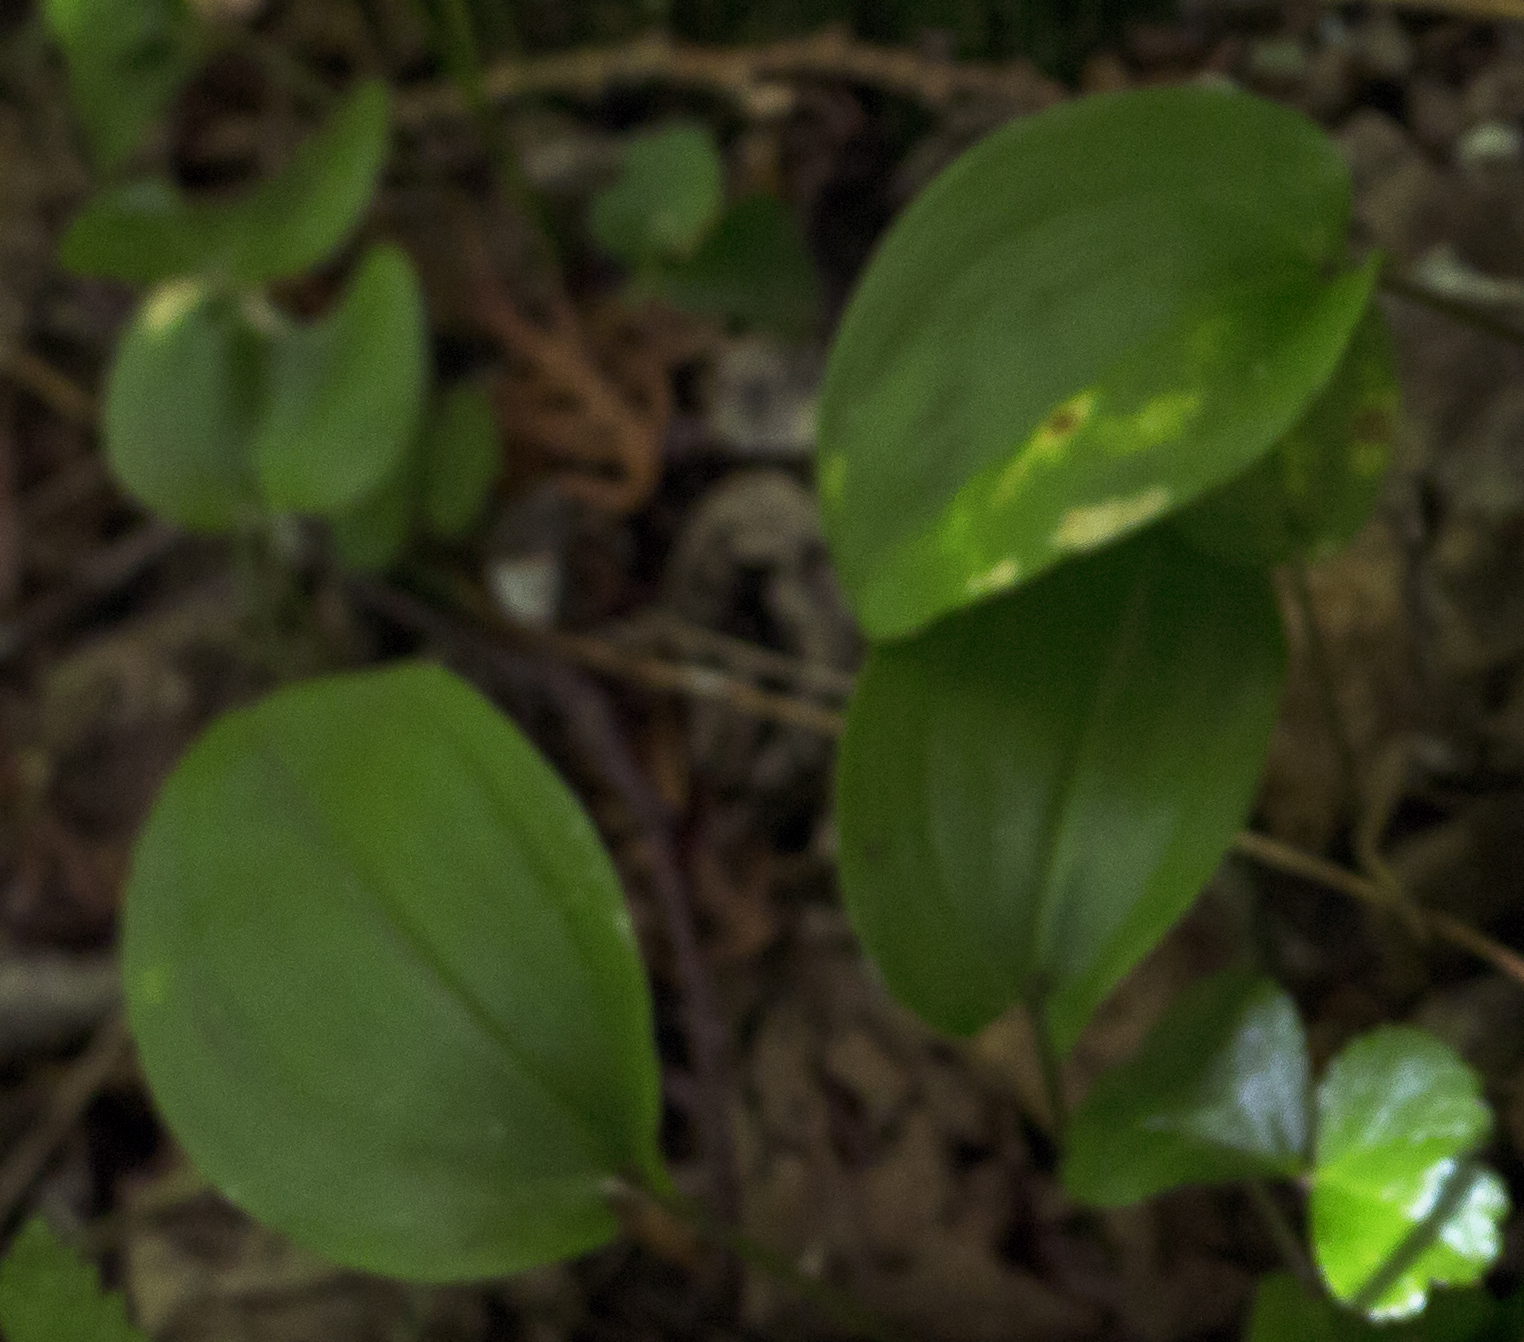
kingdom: Plantae
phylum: Tracheophyta
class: Liliopsida
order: Asparagales
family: Asparagaceae
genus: Maianthemum
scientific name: Maianthemum canadense
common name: False lily-of-the-valley
